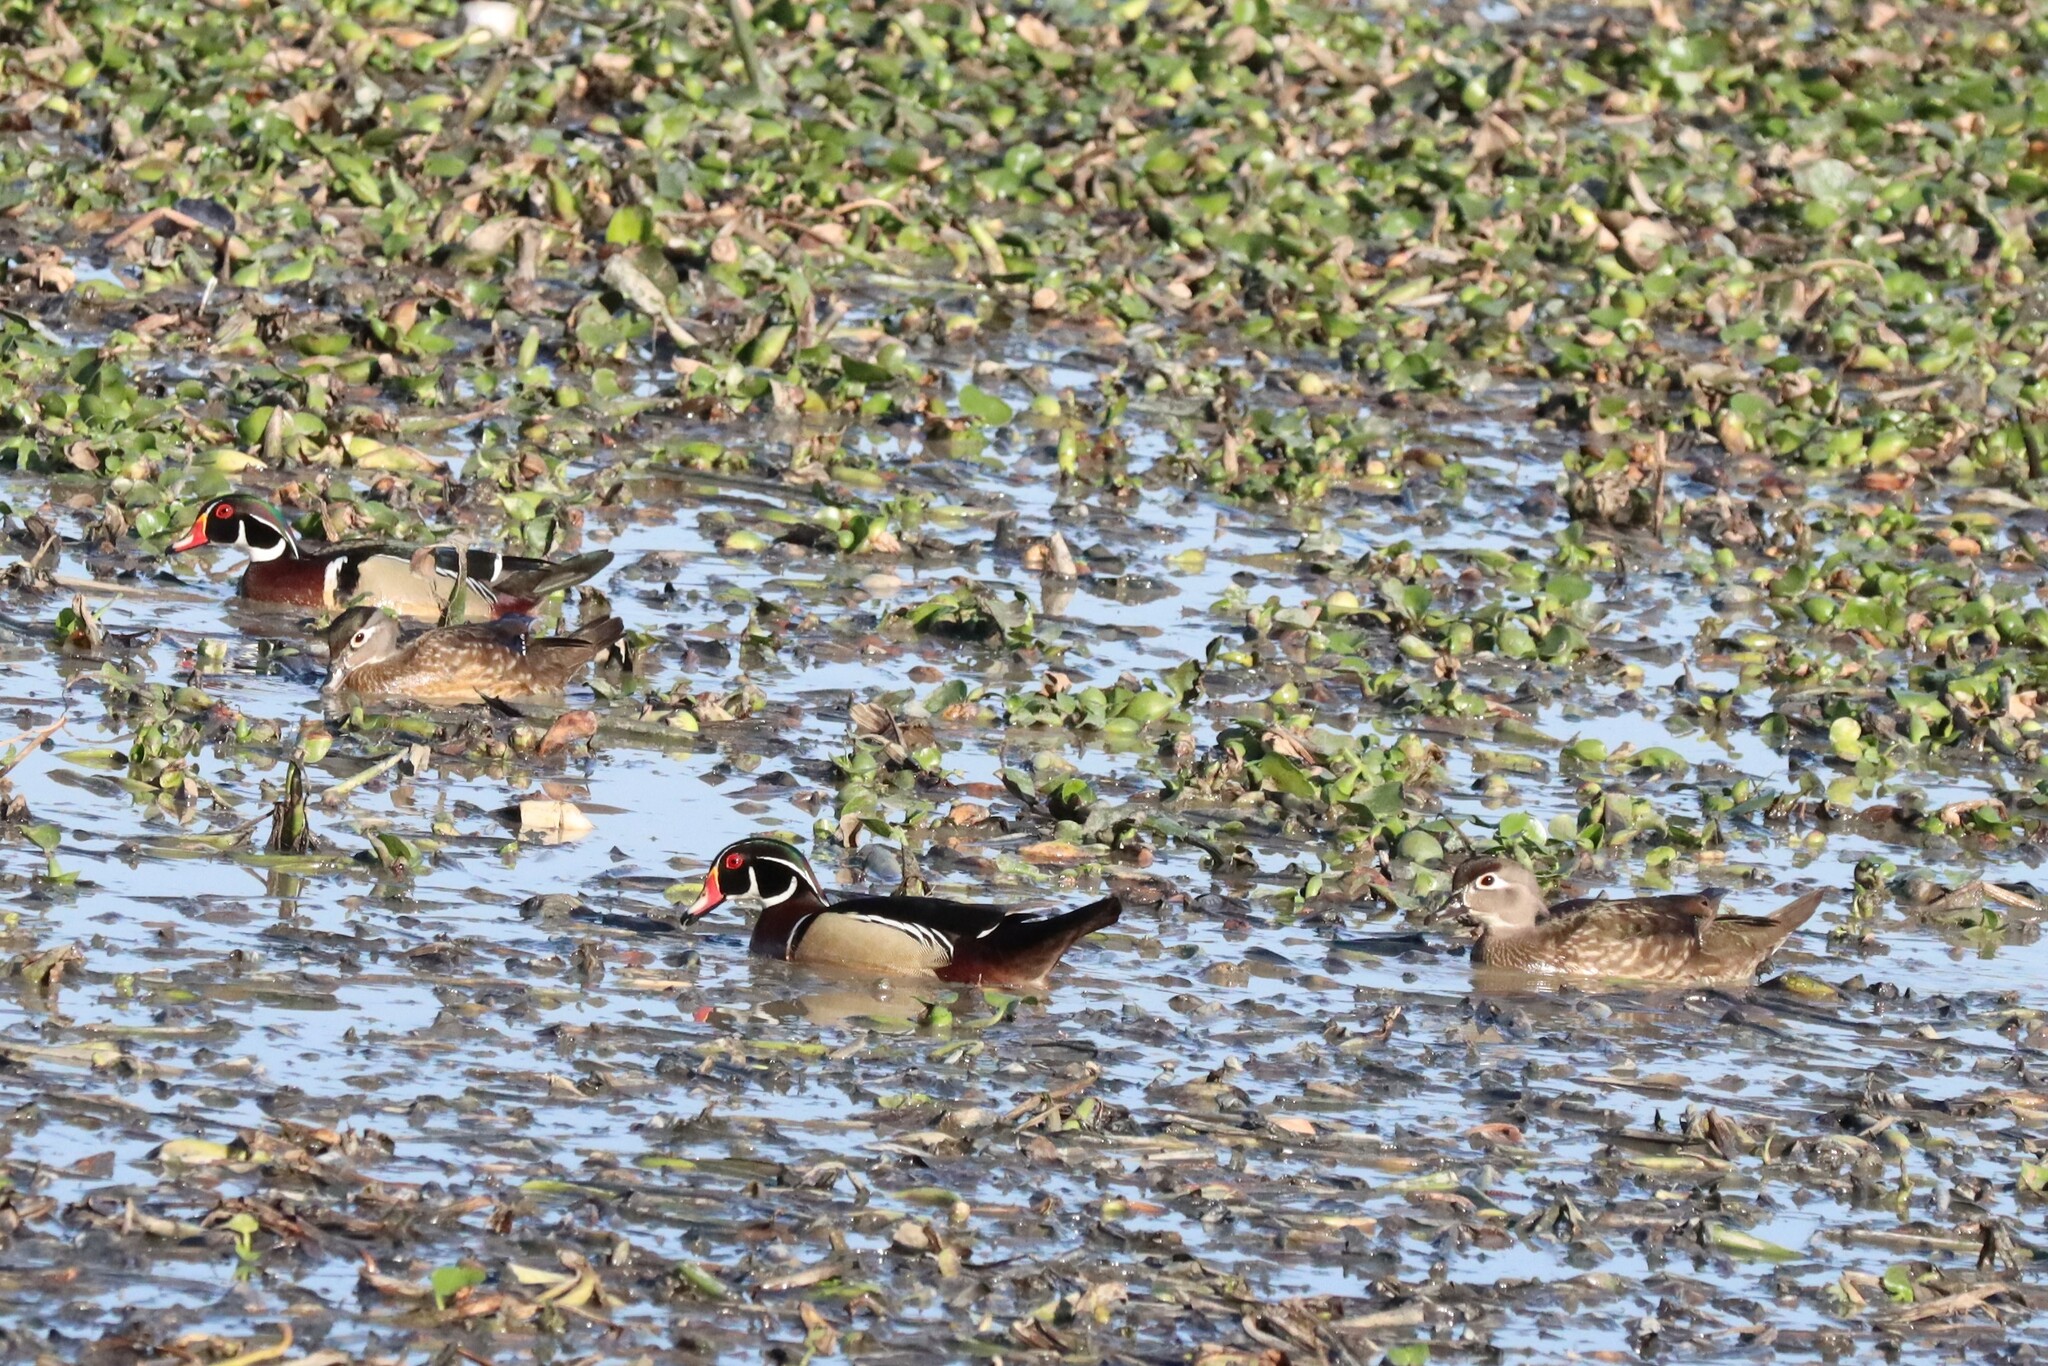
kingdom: Animalia
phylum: Chordata
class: Aves
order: Anseriformes
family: Anatidae
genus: Aix
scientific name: Aix sponsa
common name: Wood duck
